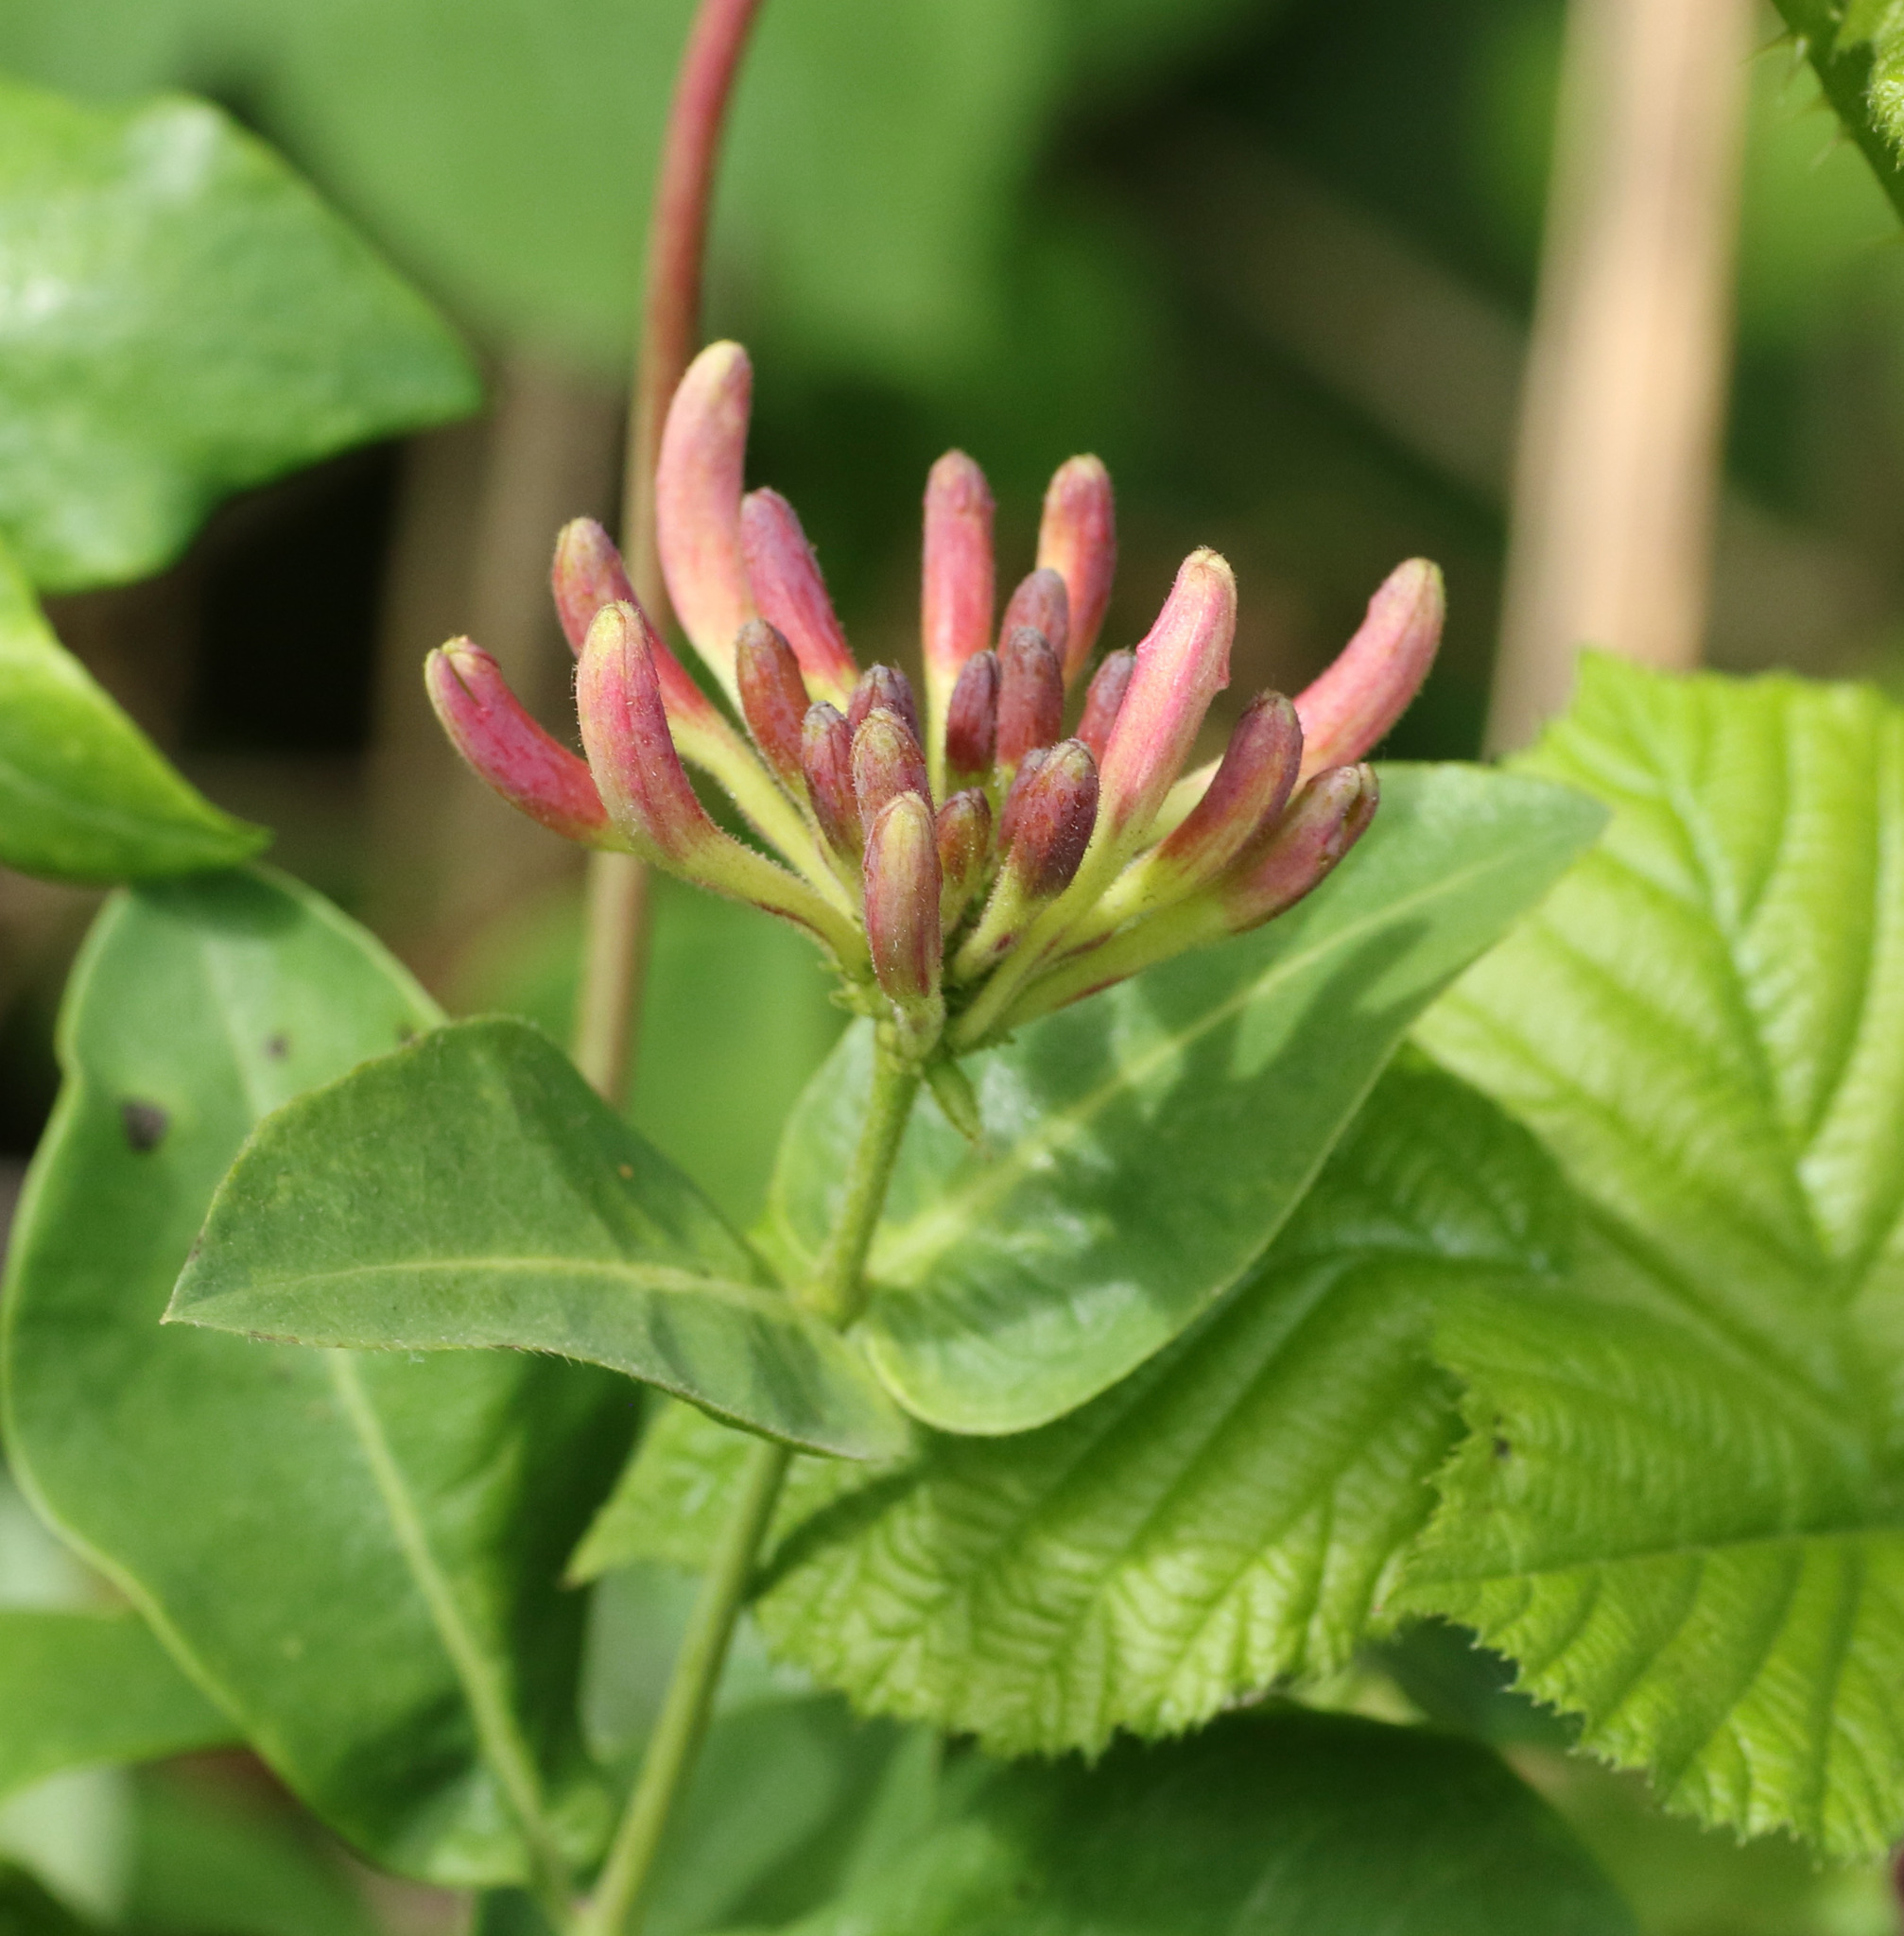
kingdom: Plantae
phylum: Tracheophyta
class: Magnoliopsida
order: Dipsacales
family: Caprifoliaceae
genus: Lonicera
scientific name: Lonicera periclymenum
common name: European honeysuckle
